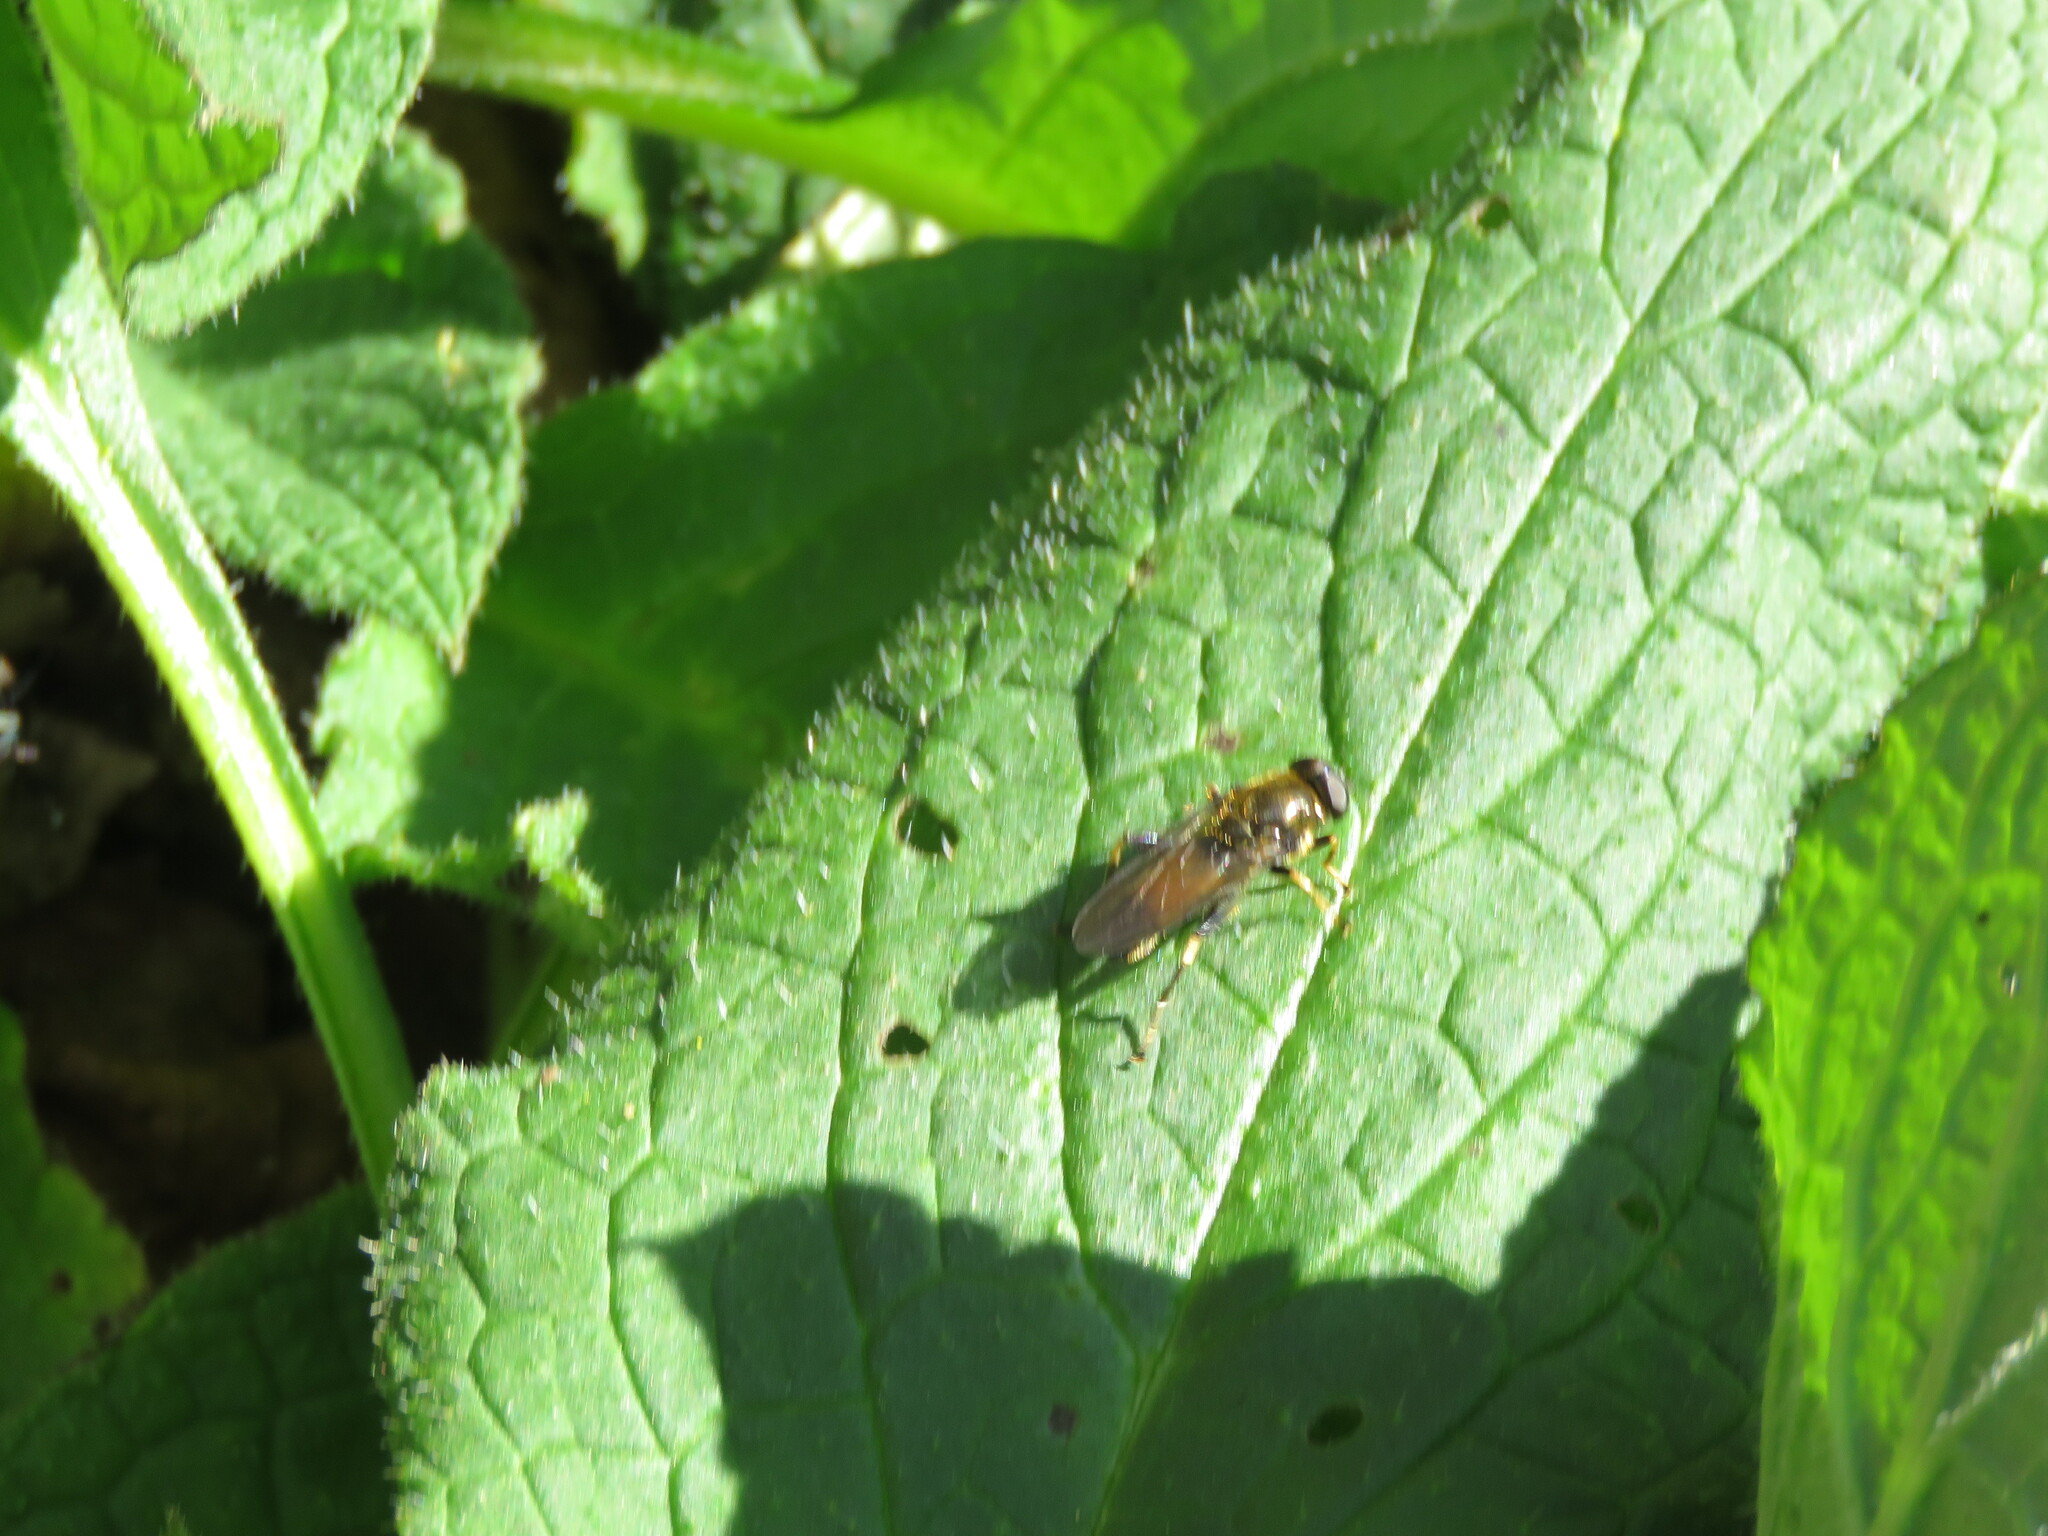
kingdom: Animalia
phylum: Arthropoda
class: Insecta
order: Diptera
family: Syrphidae
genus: Xylota
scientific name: Xylota segnis
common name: Brown-toed forest fly
